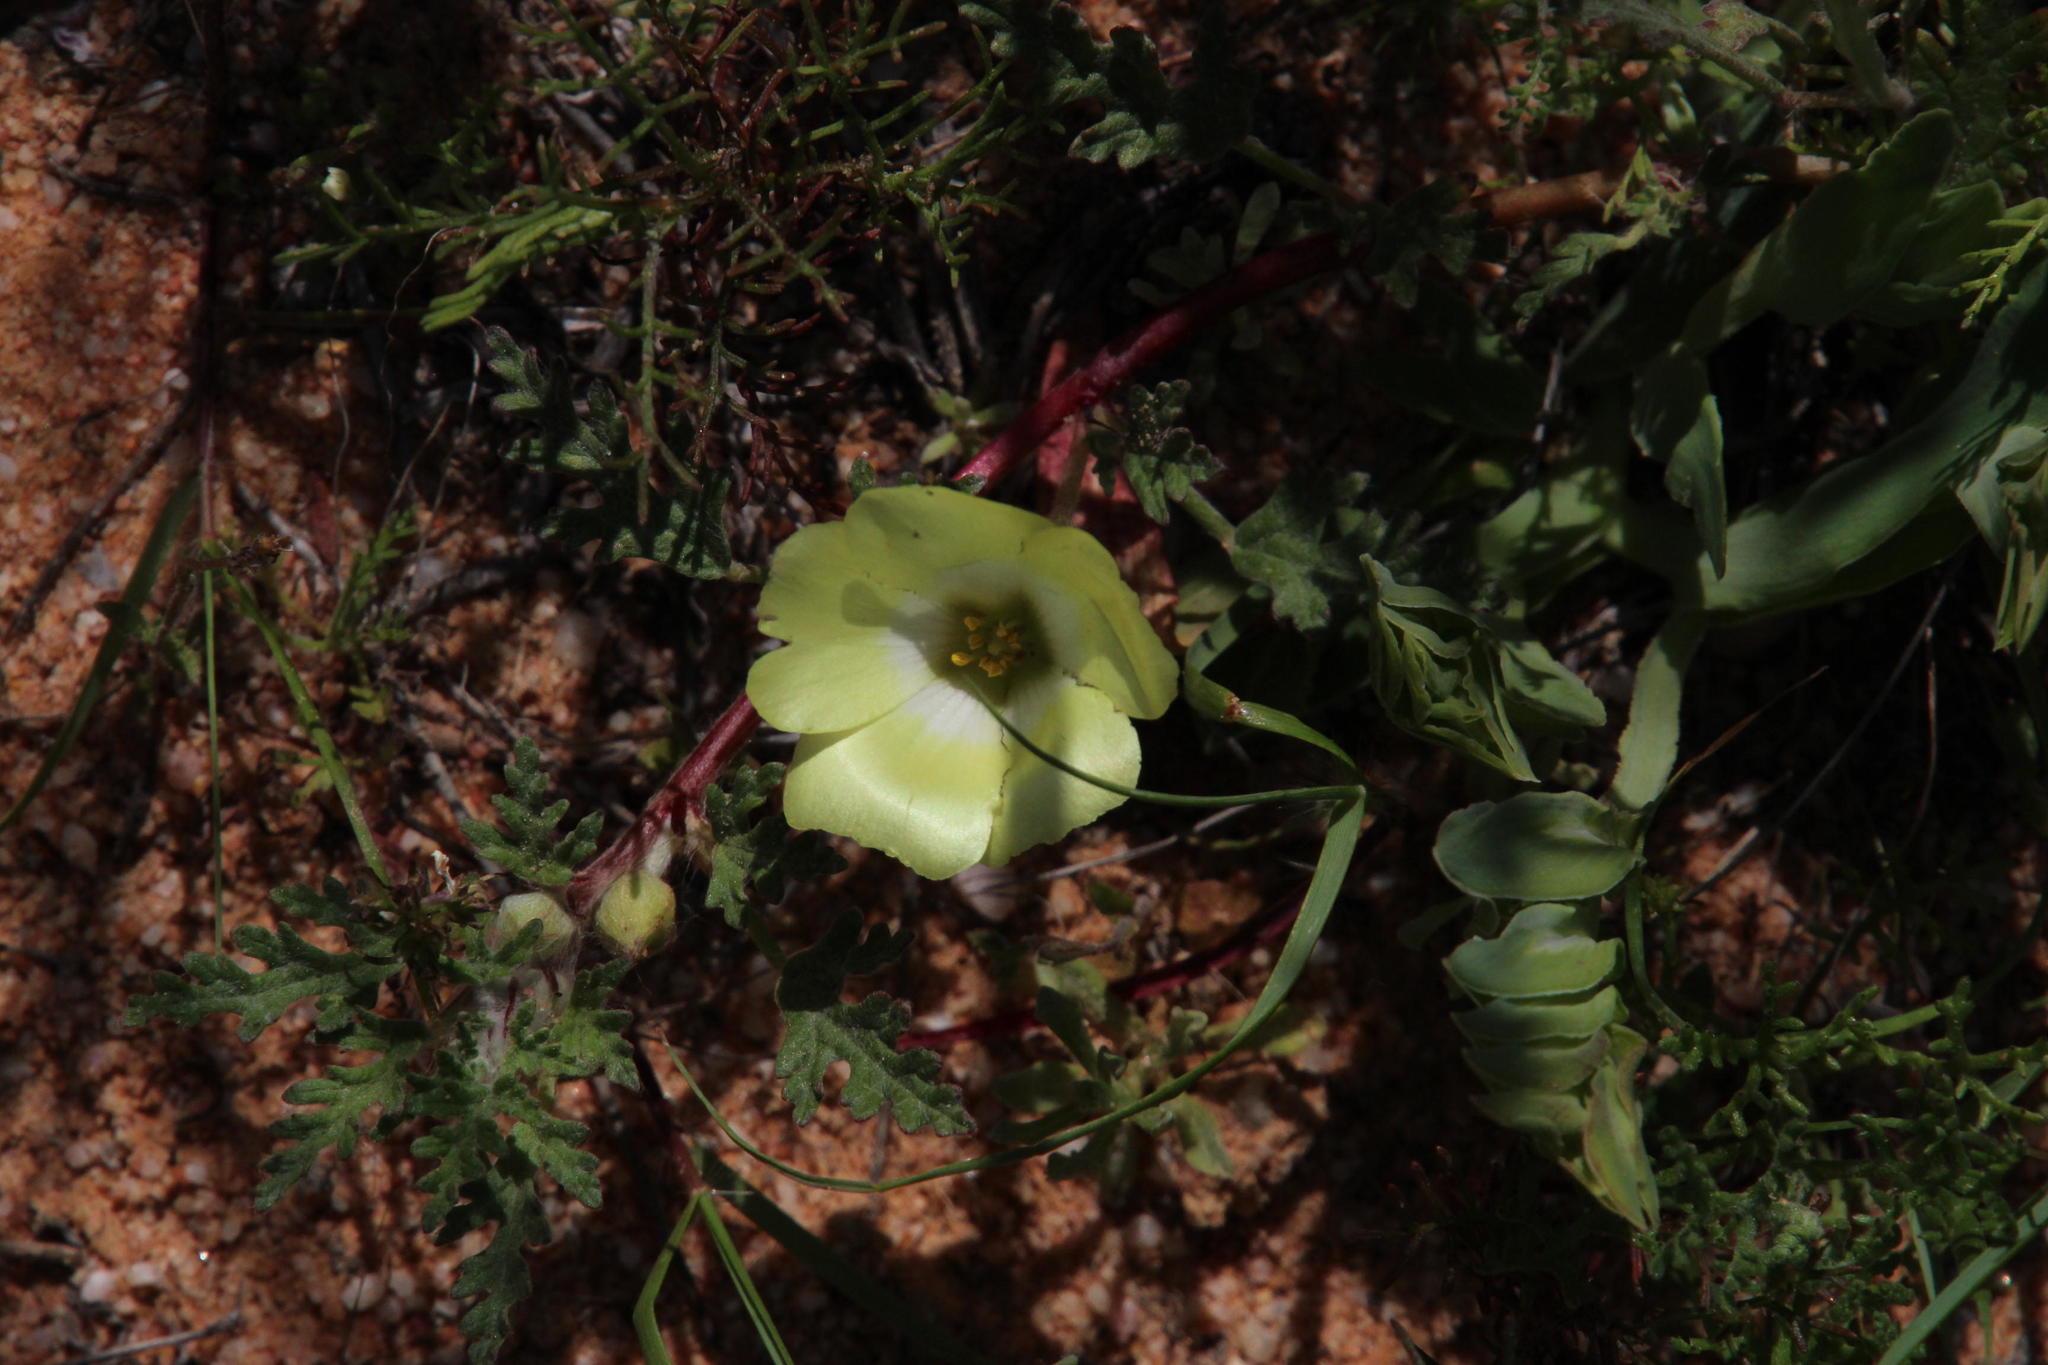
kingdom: Plantae
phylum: Tracheophyta
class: Magnoliopsida
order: Oxalidales
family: Oxalidaceae
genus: Oxalis
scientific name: Oxalis obtusa
